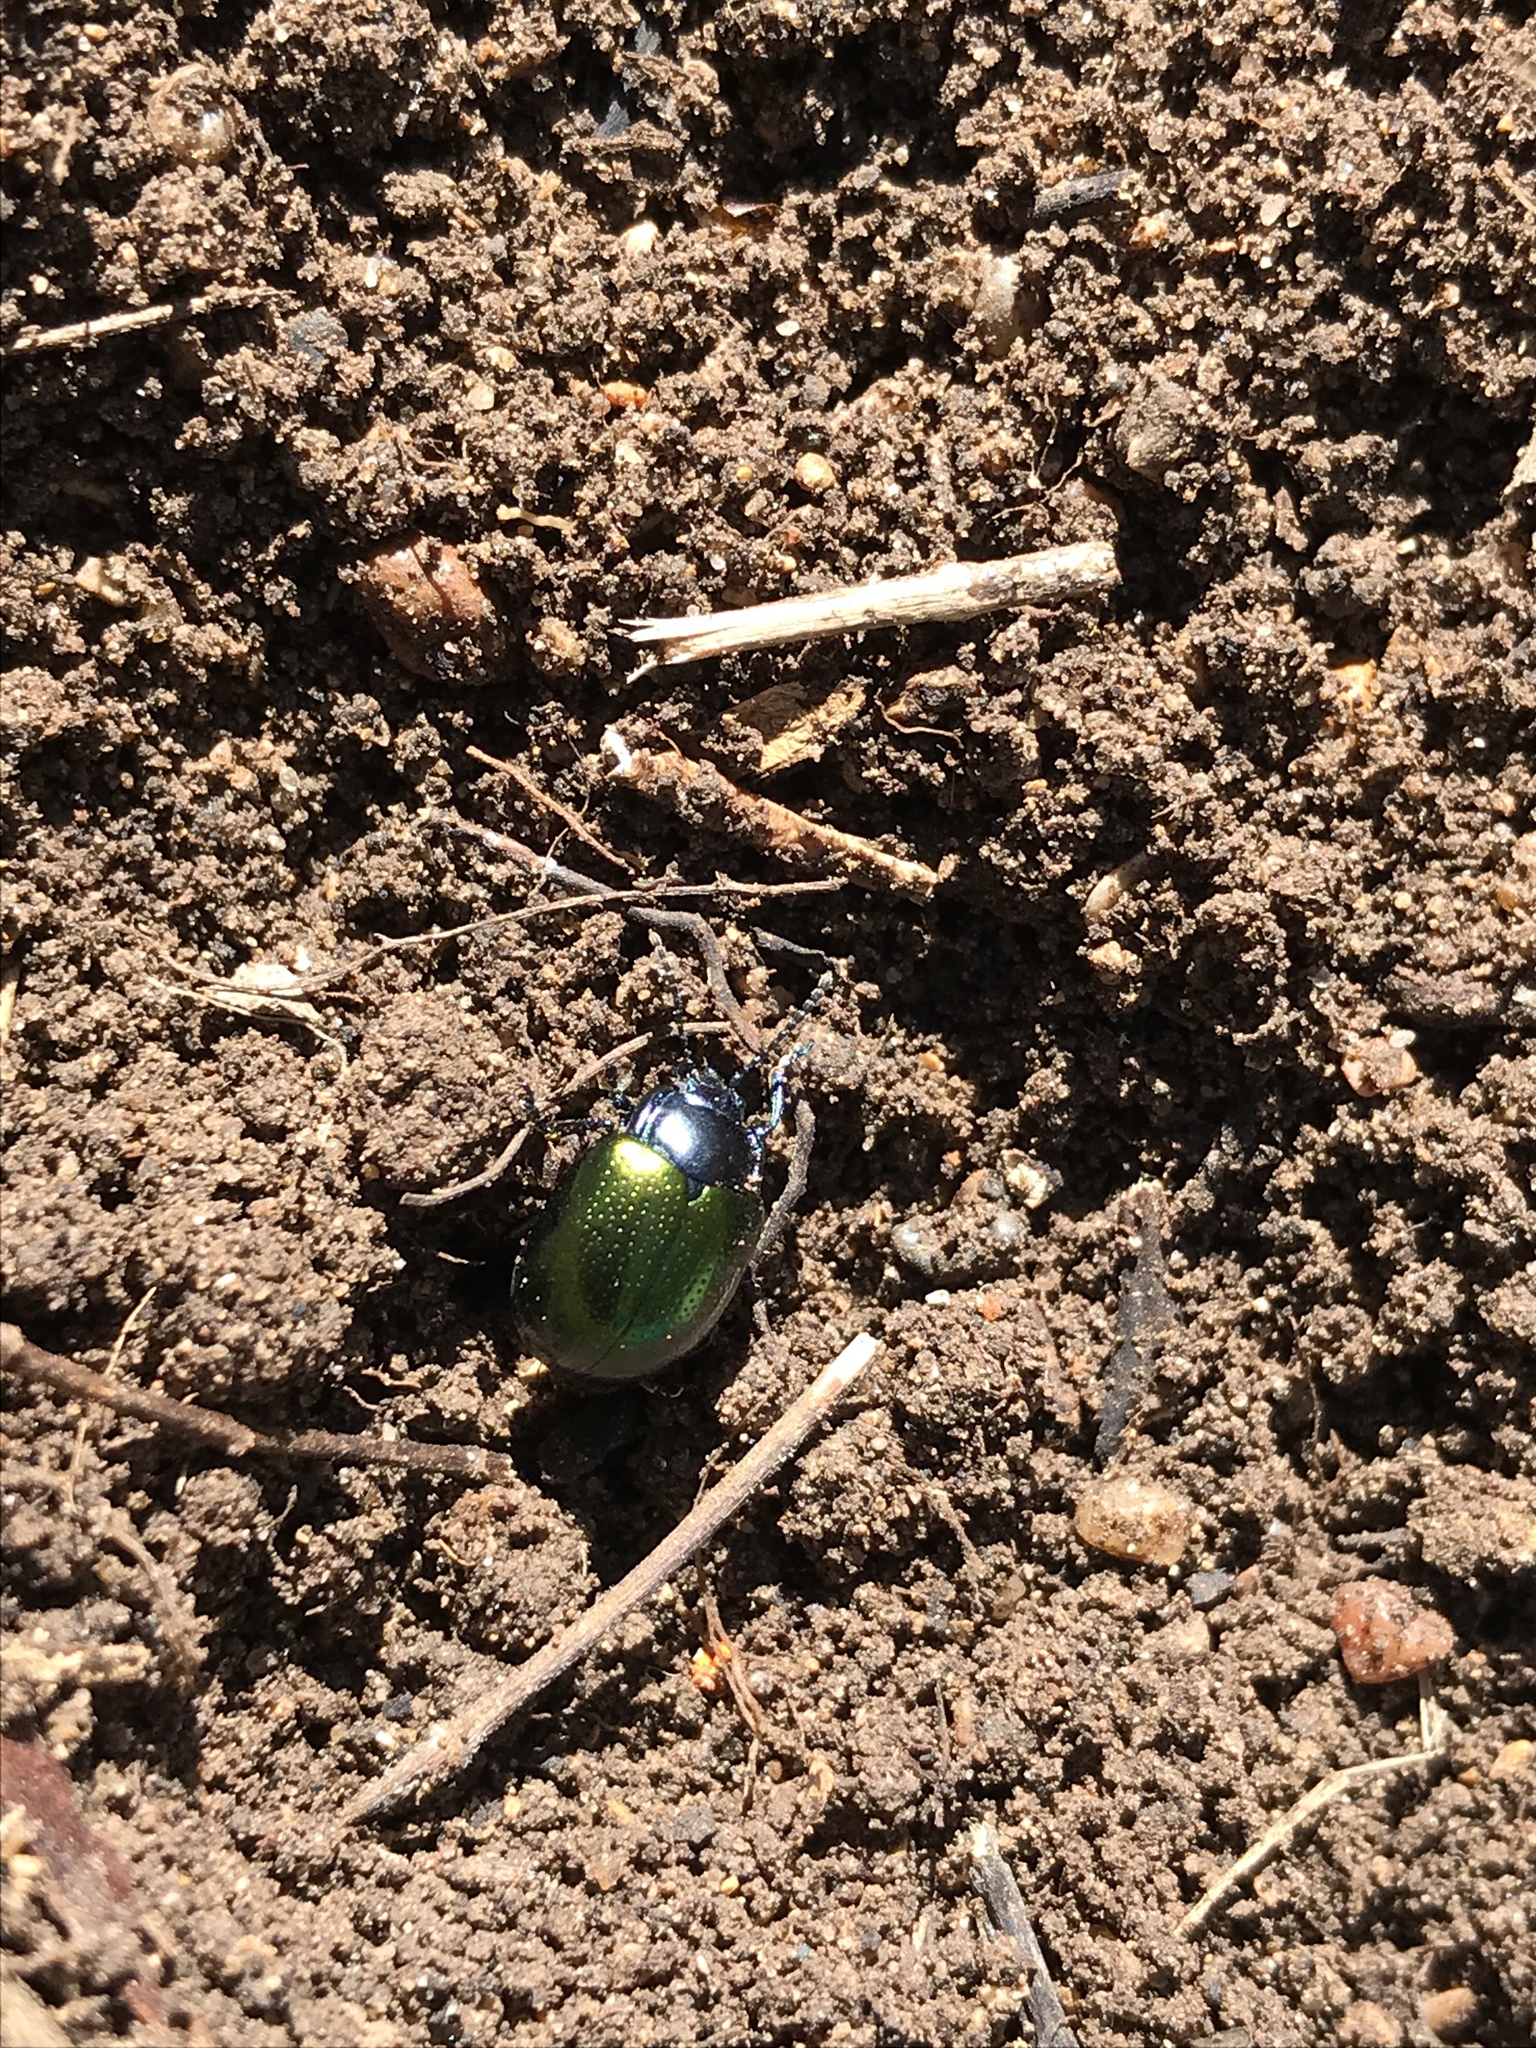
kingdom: Animalia
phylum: Arthropoda
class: Insecta
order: Coleoptera
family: Chrysomelidae
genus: Chrysolina
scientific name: Chrysolina auripennis
